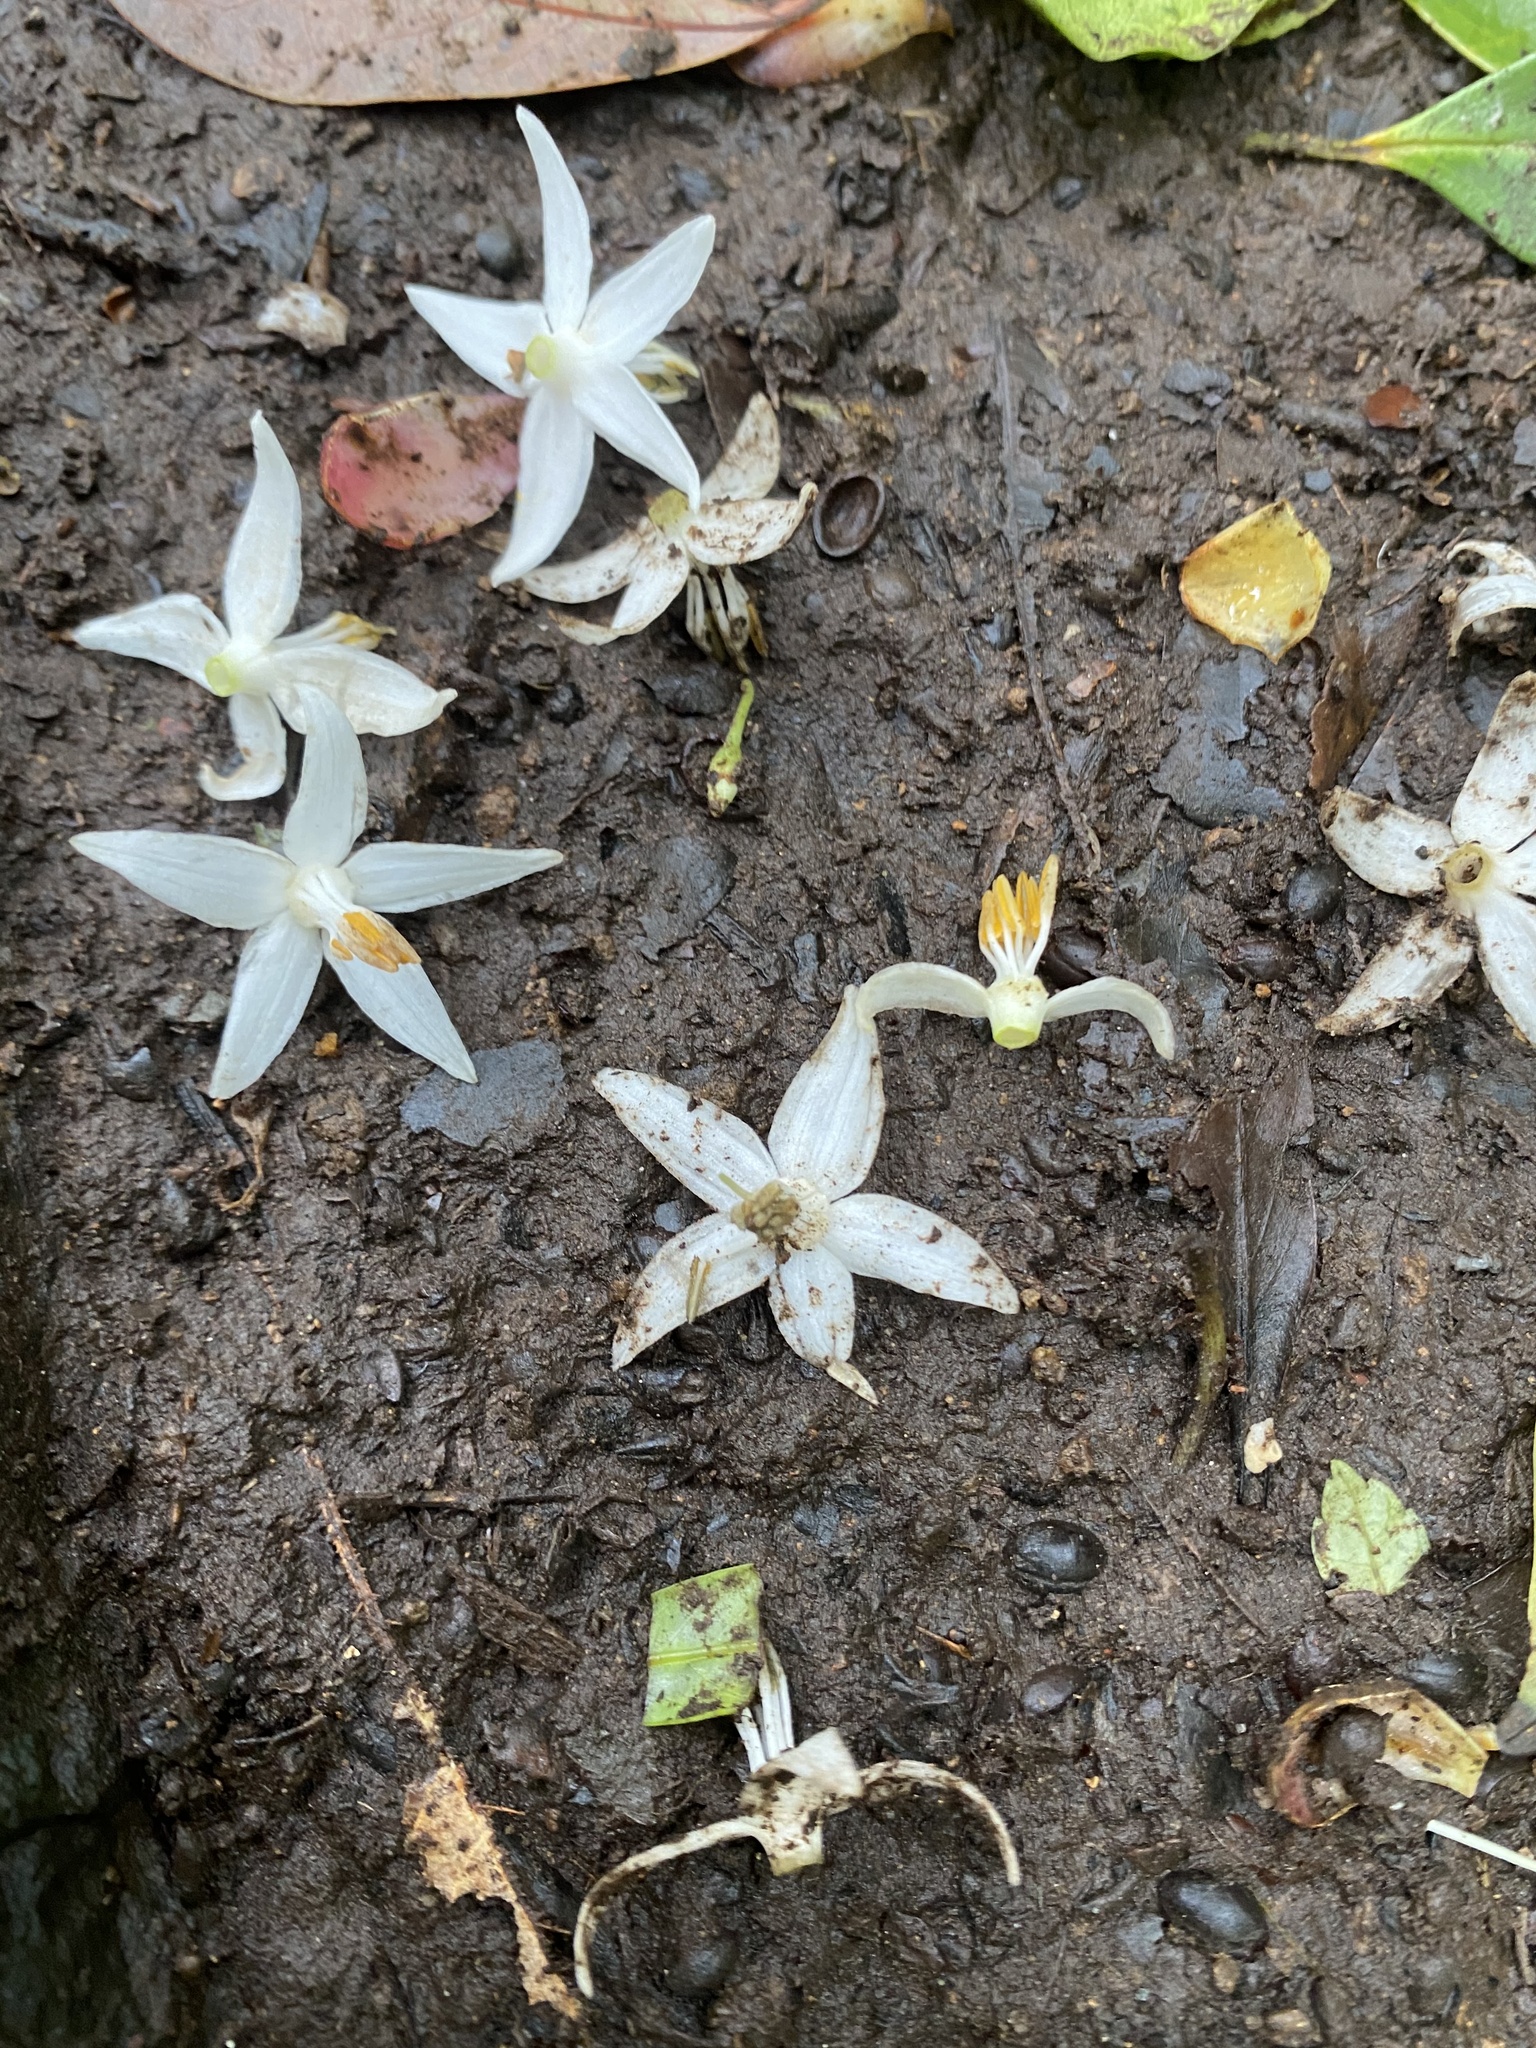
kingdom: Plantae
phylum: Tracheophyta
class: Magnoliopsida
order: Ericales
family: Styracaceae
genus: Styrax
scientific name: Styrax formosanus
